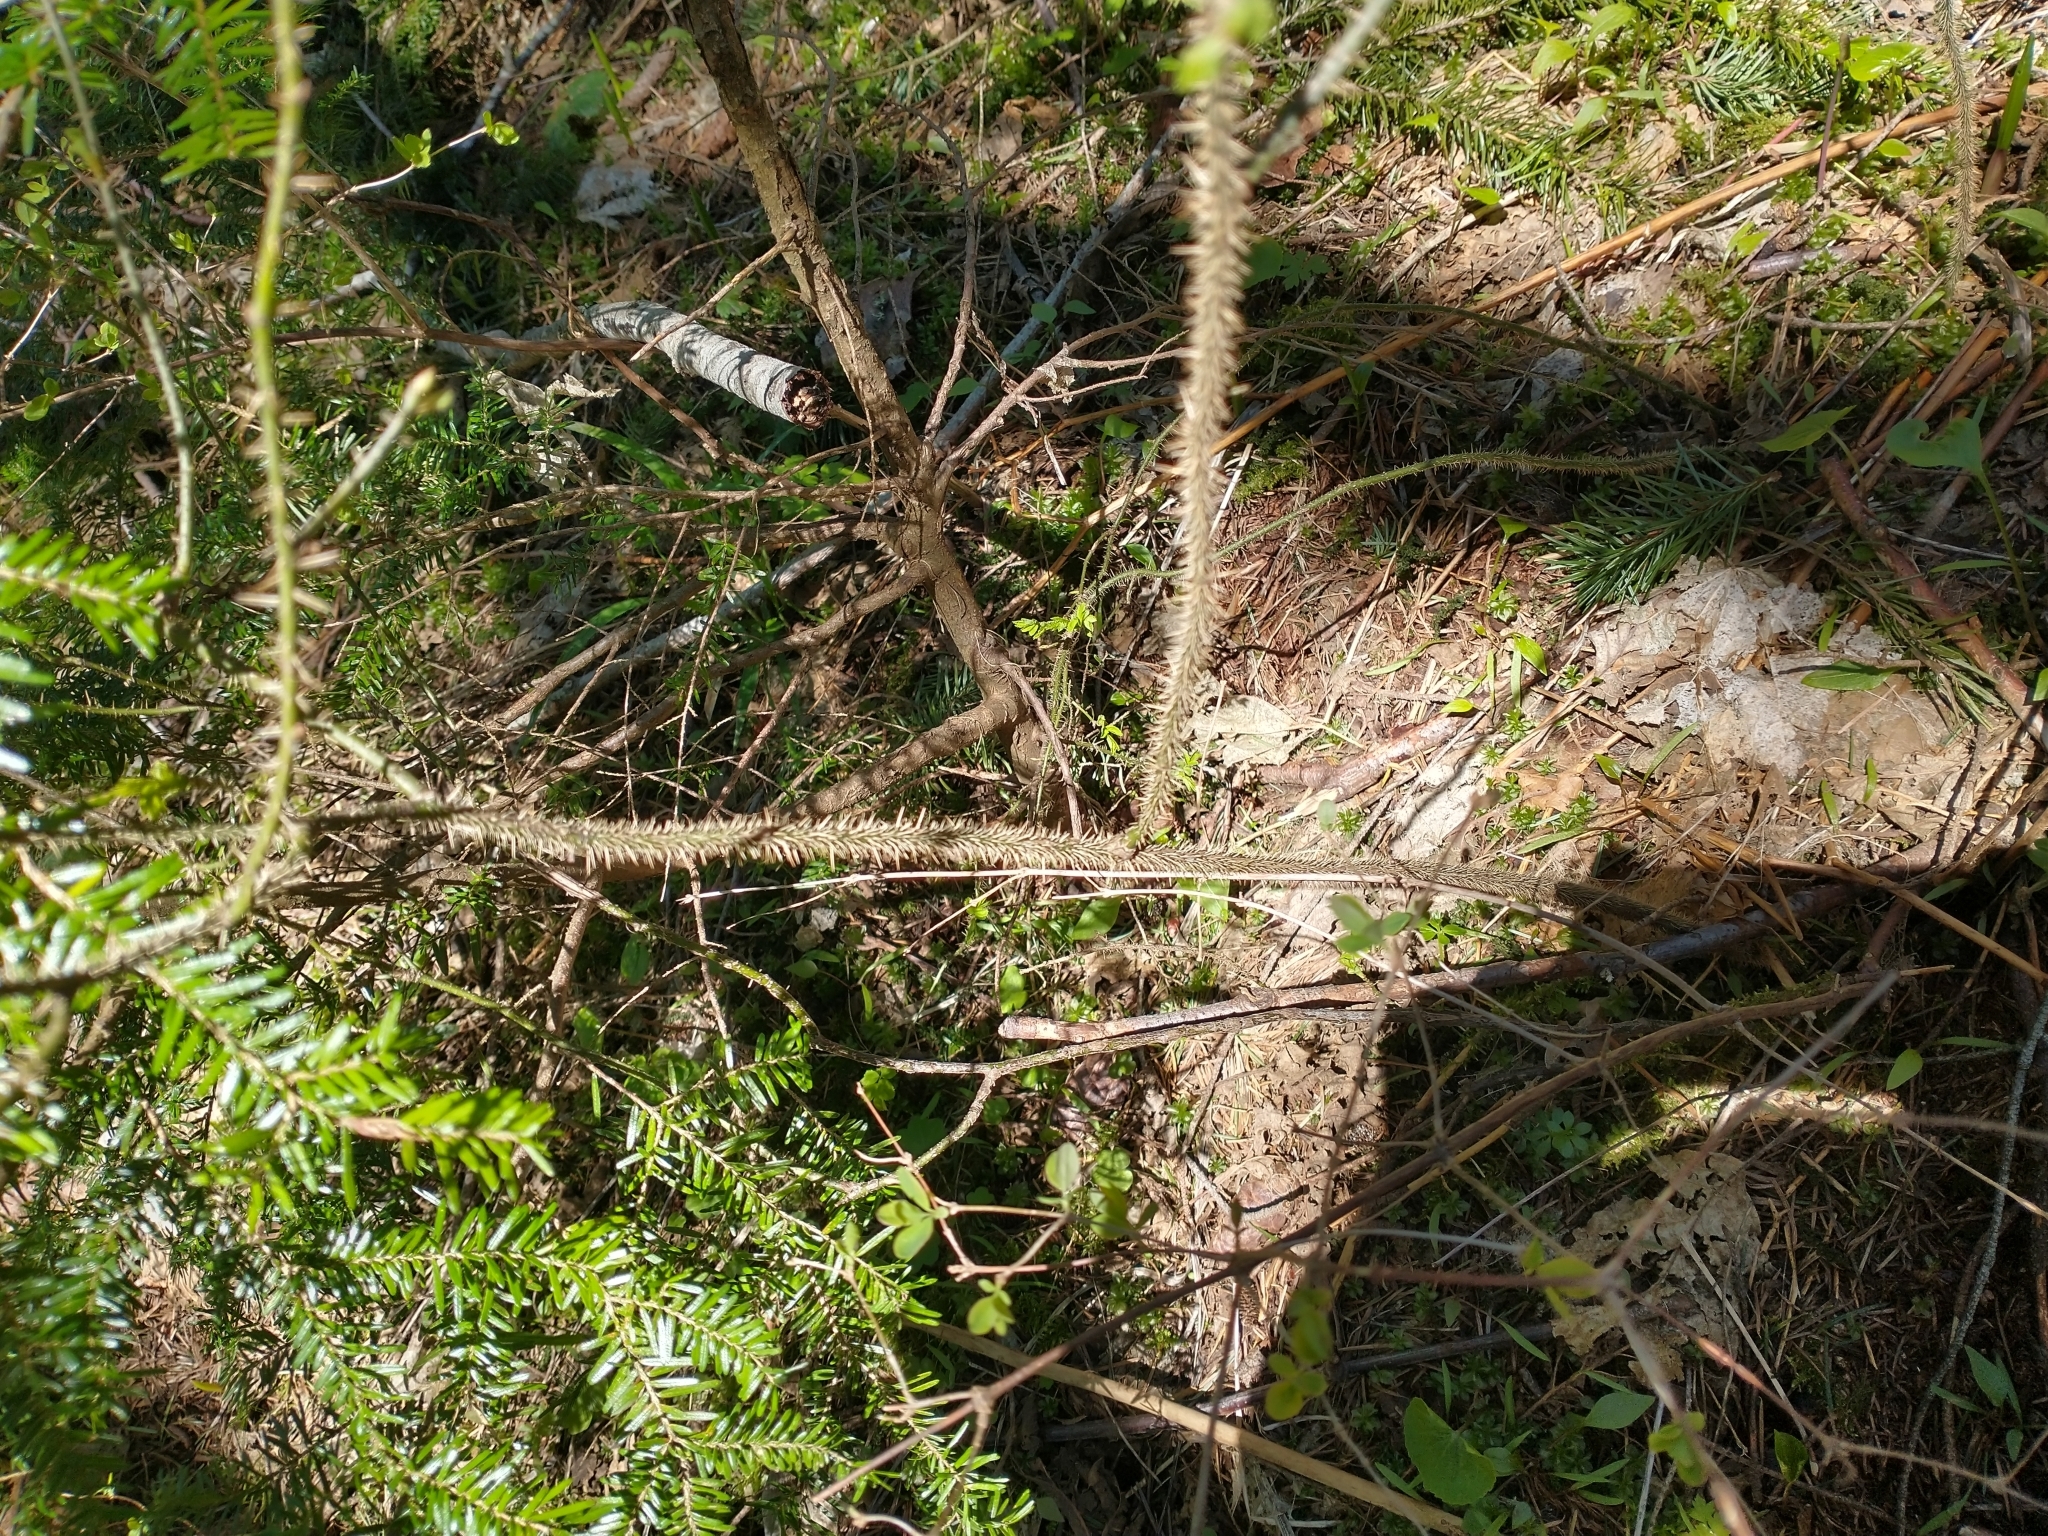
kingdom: Plantae
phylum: Tracheophyta
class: Magnoliopsida
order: Rosales
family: Rosaceae
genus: Rosa
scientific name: Rosa gymnocarpa
